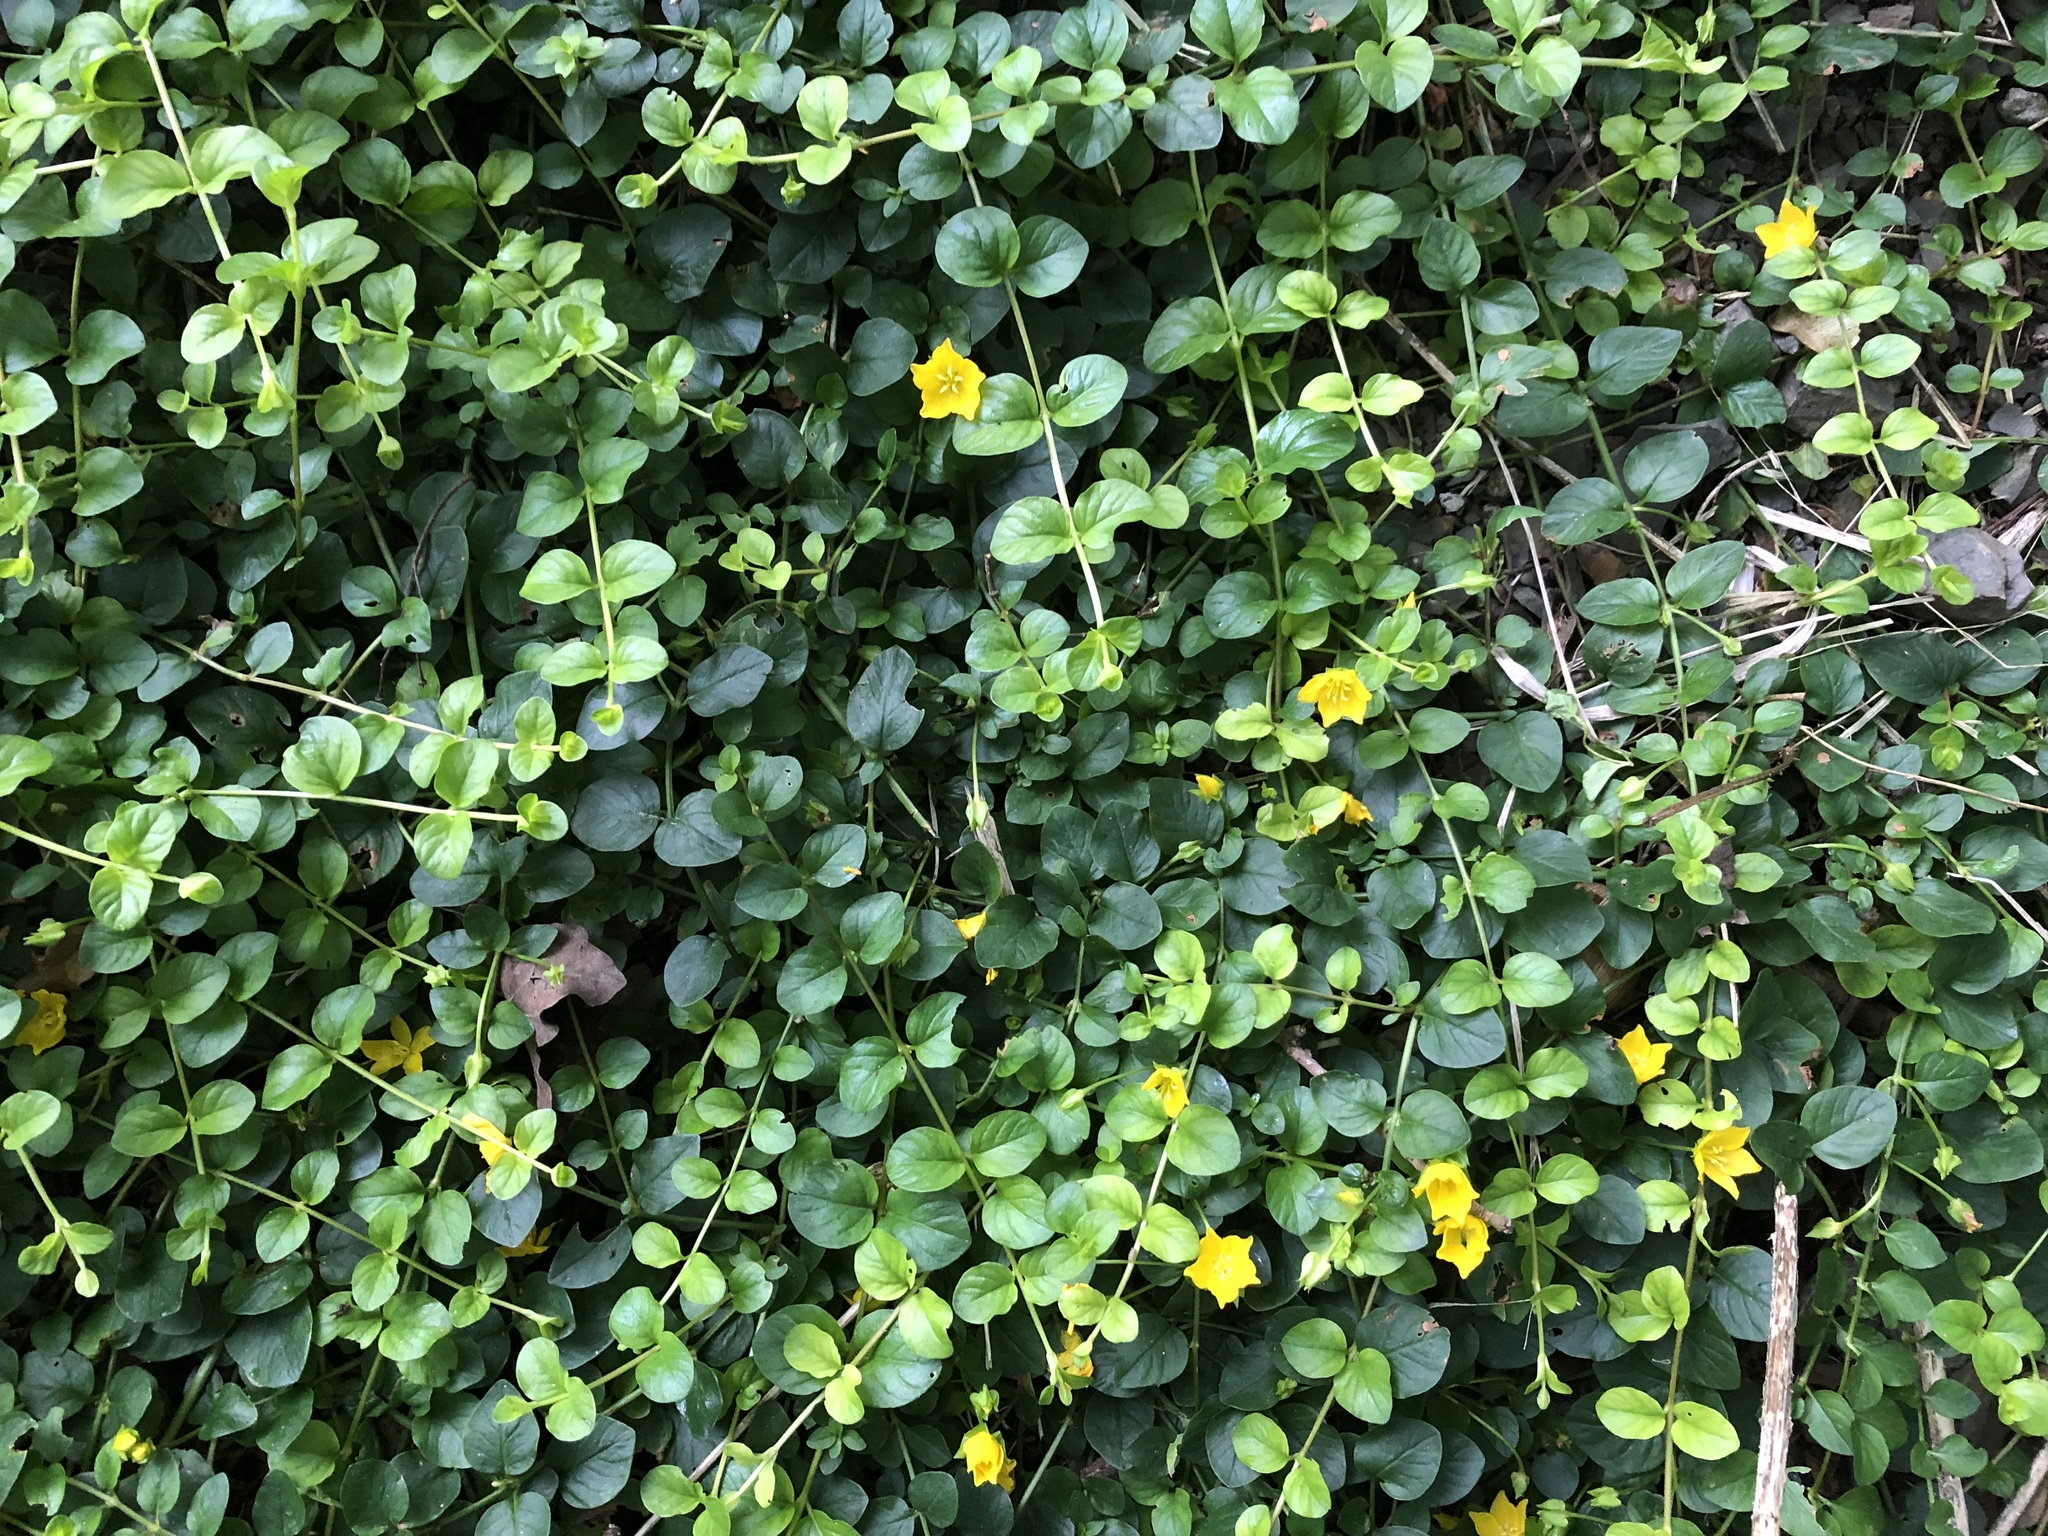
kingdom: Plantae
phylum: Tracheophyta
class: Magnoliopsida
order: Ericales
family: Primulaceae
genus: Lysimachia
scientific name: Lysimachia nummularia
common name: Moneywort
